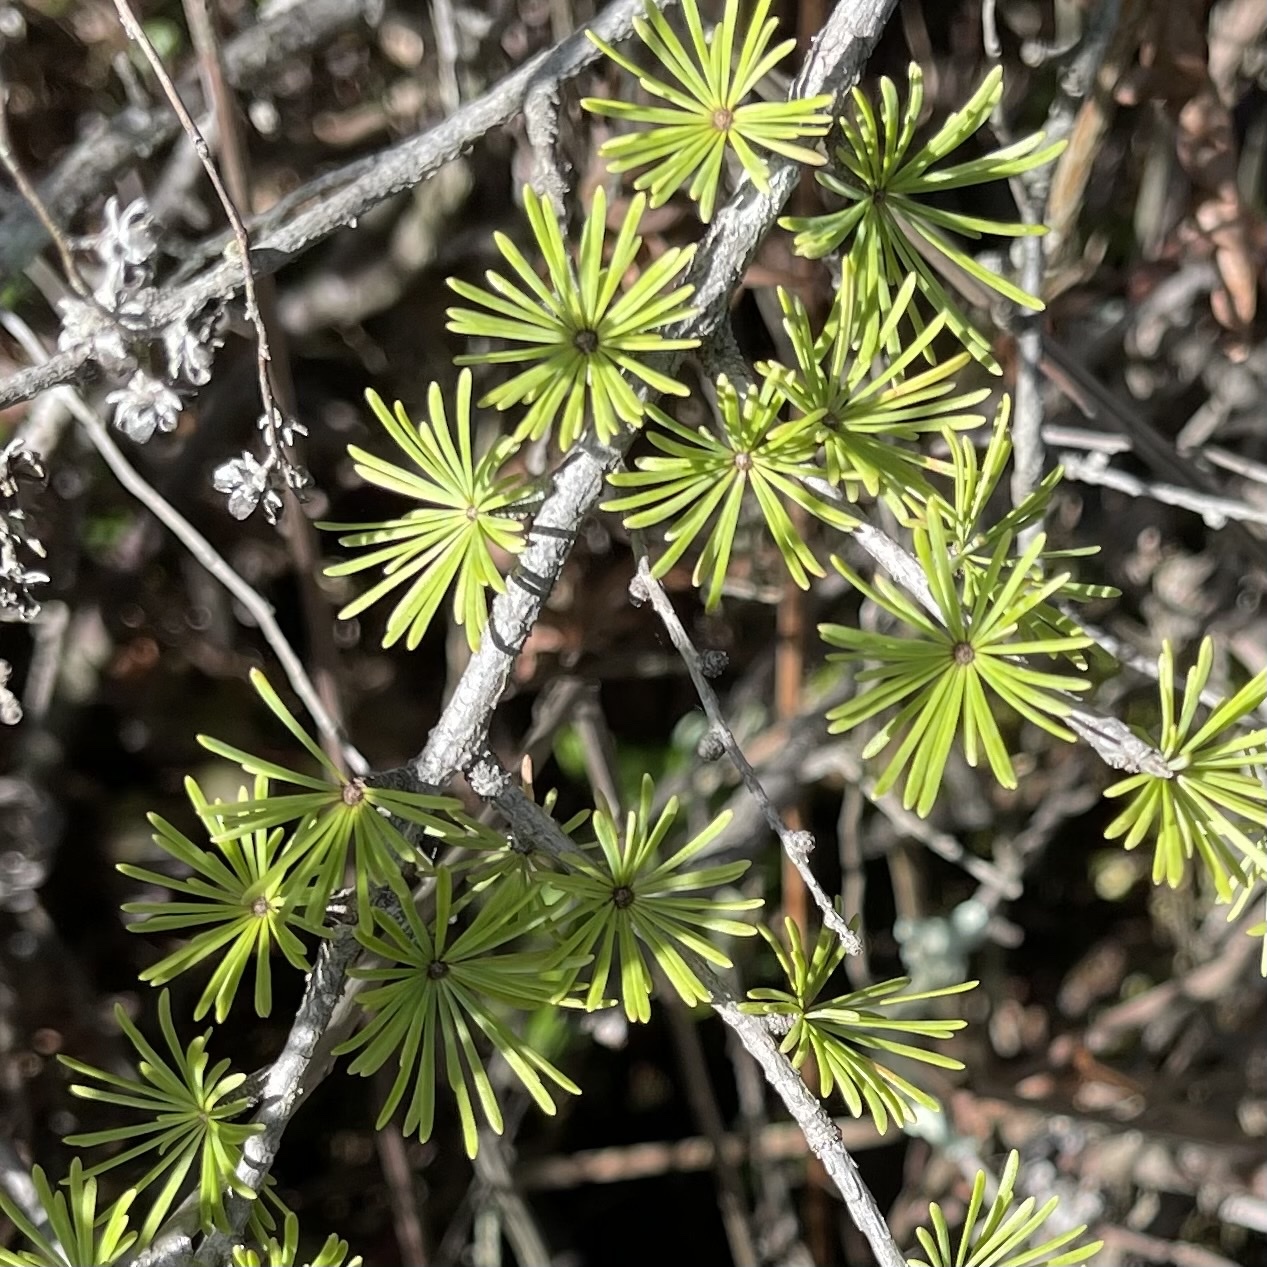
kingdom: Plantae
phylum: Tracheophyta
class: Pinopsida
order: Pinales
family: Pinaceae
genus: Larix
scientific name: Larix laricina
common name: American larch
